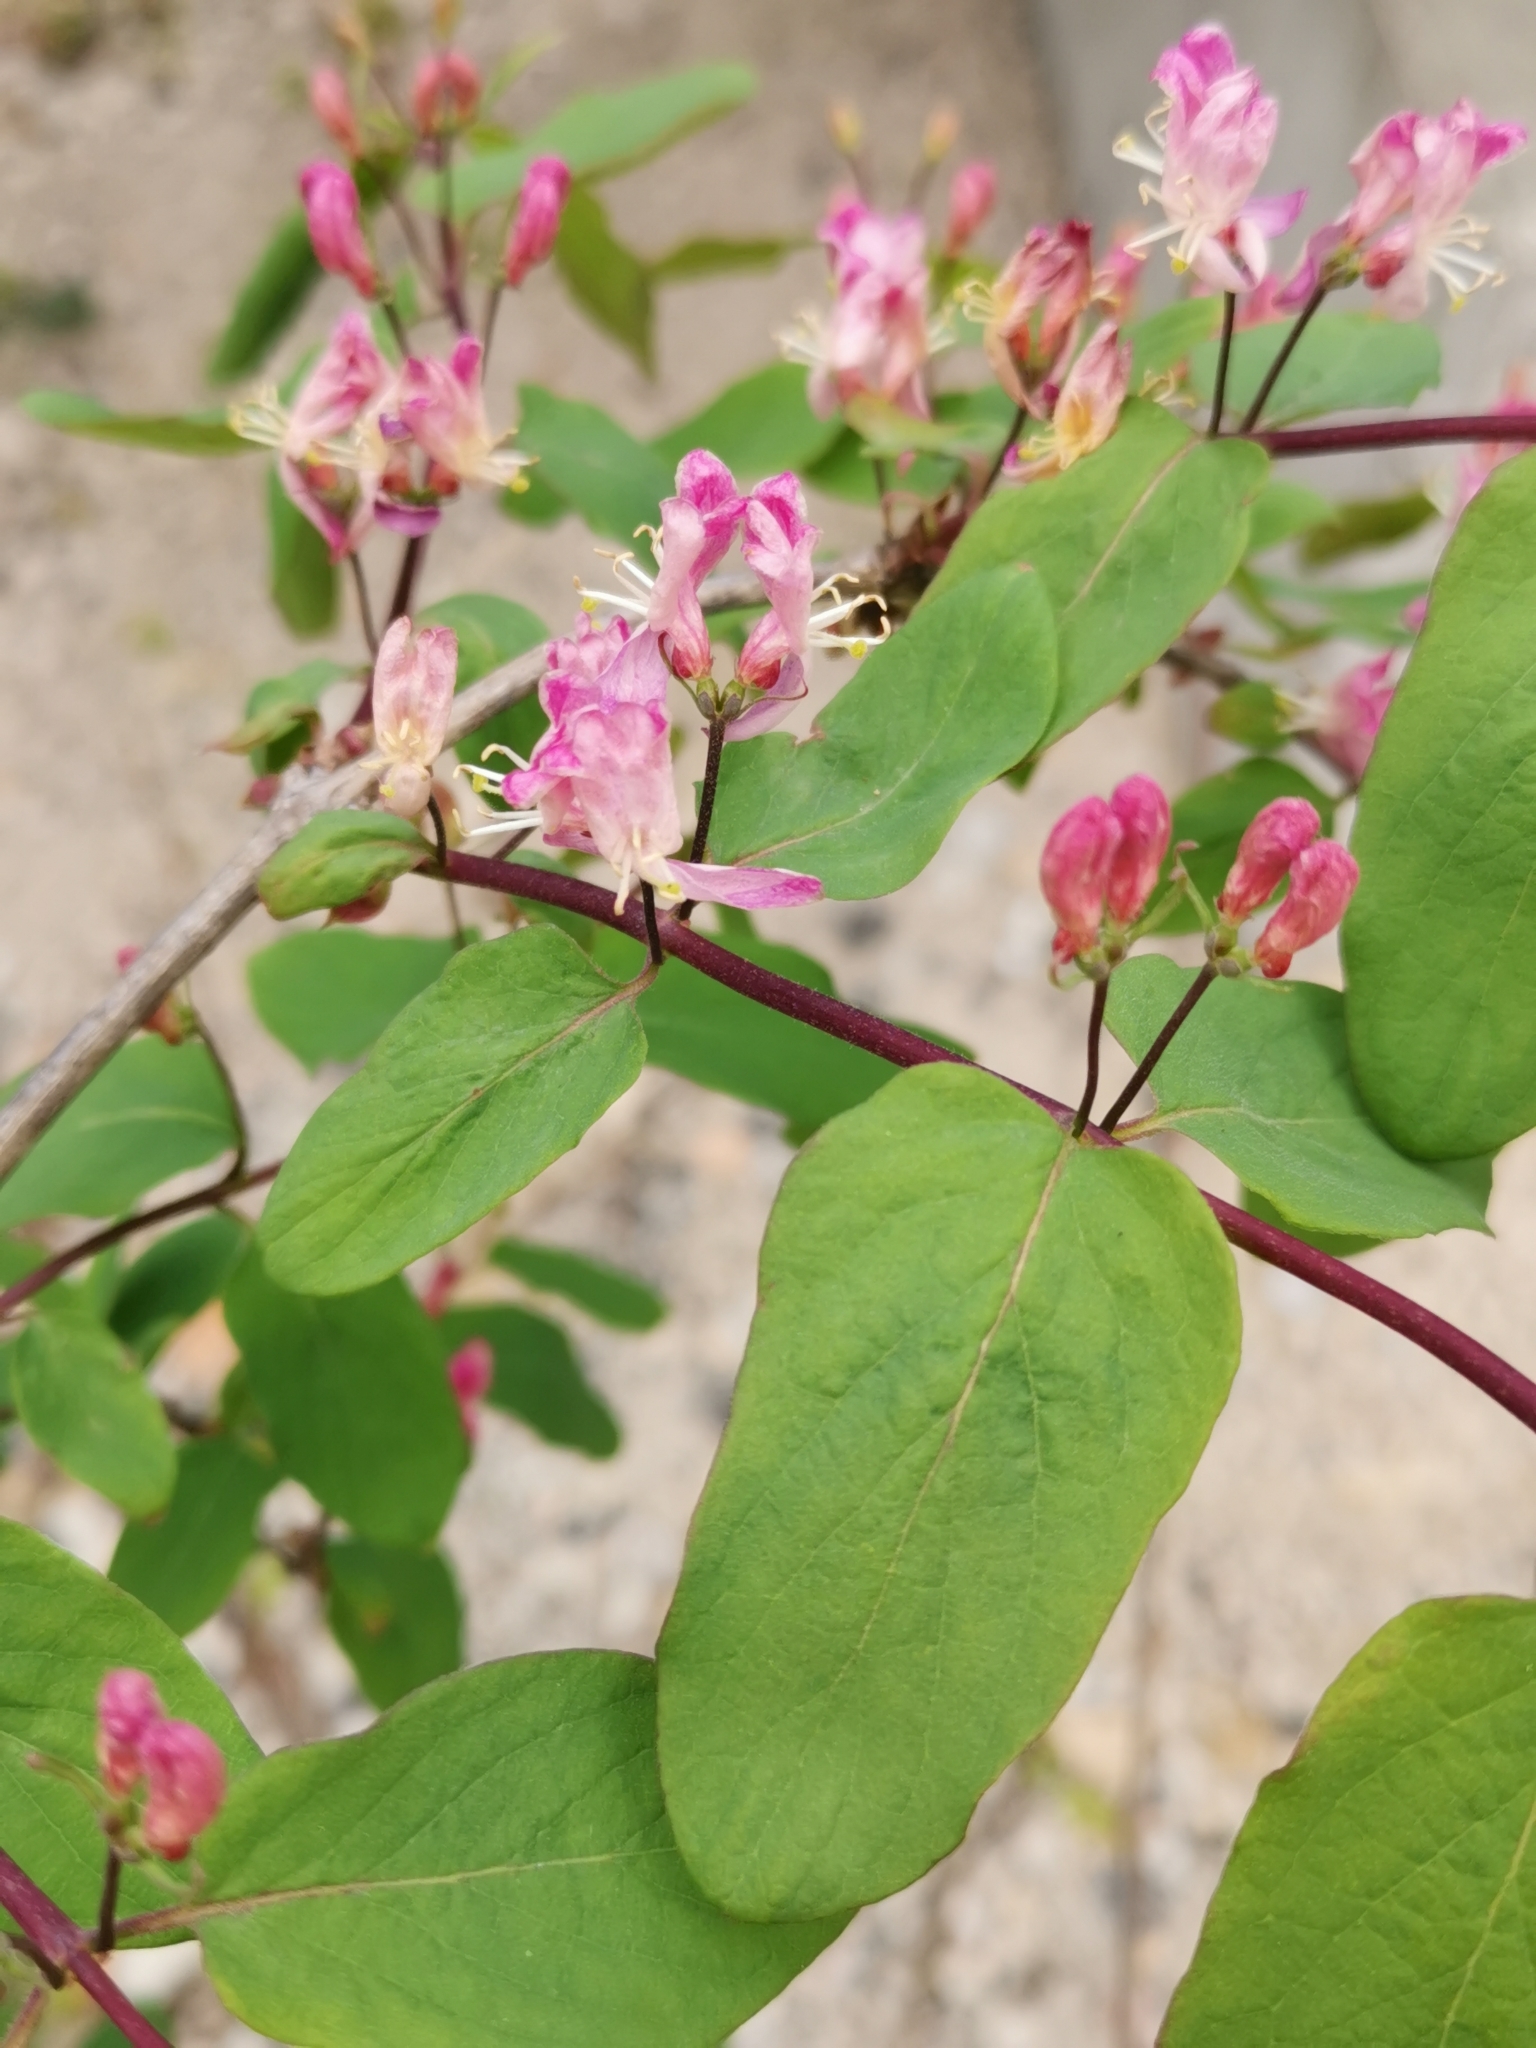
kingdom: Plantae
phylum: Tracheophyta
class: Magnoliopsida
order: Dipsacales
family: Caprifoliaceae
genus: Lonicera
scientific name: Lonicera tatarica
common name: Tatarian honeysuckle
